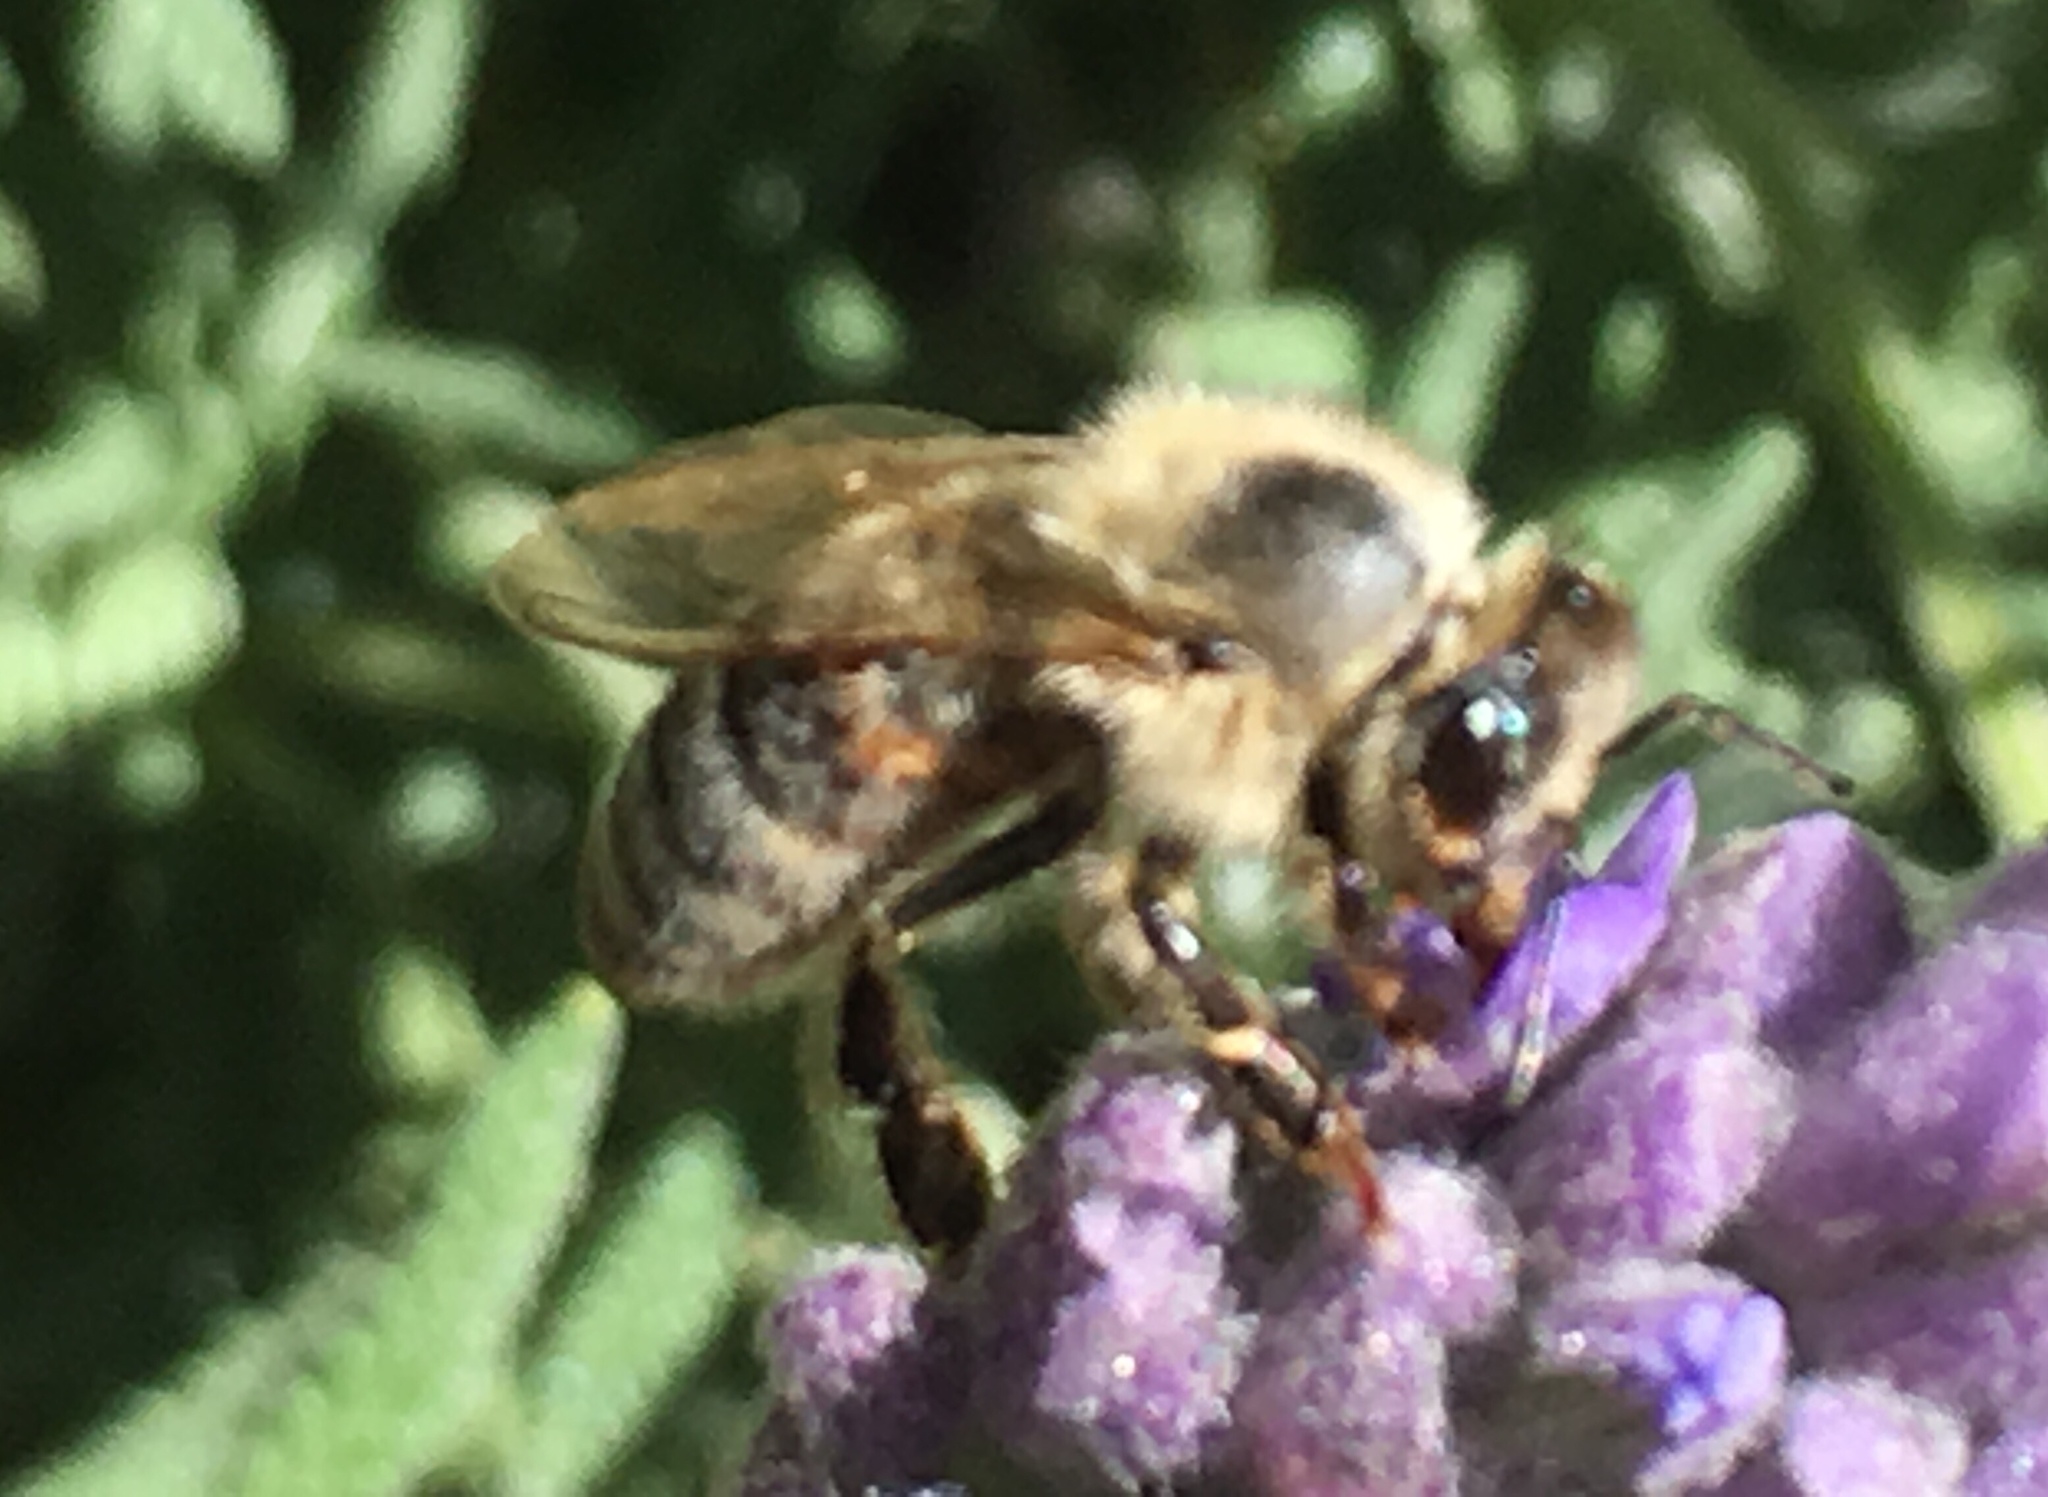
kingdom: Animalia
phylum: Arthropoda
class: Insecta
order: Hymenoptera
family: Apidae
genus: Apis
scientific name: Apis mellifera
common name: Honey bee
